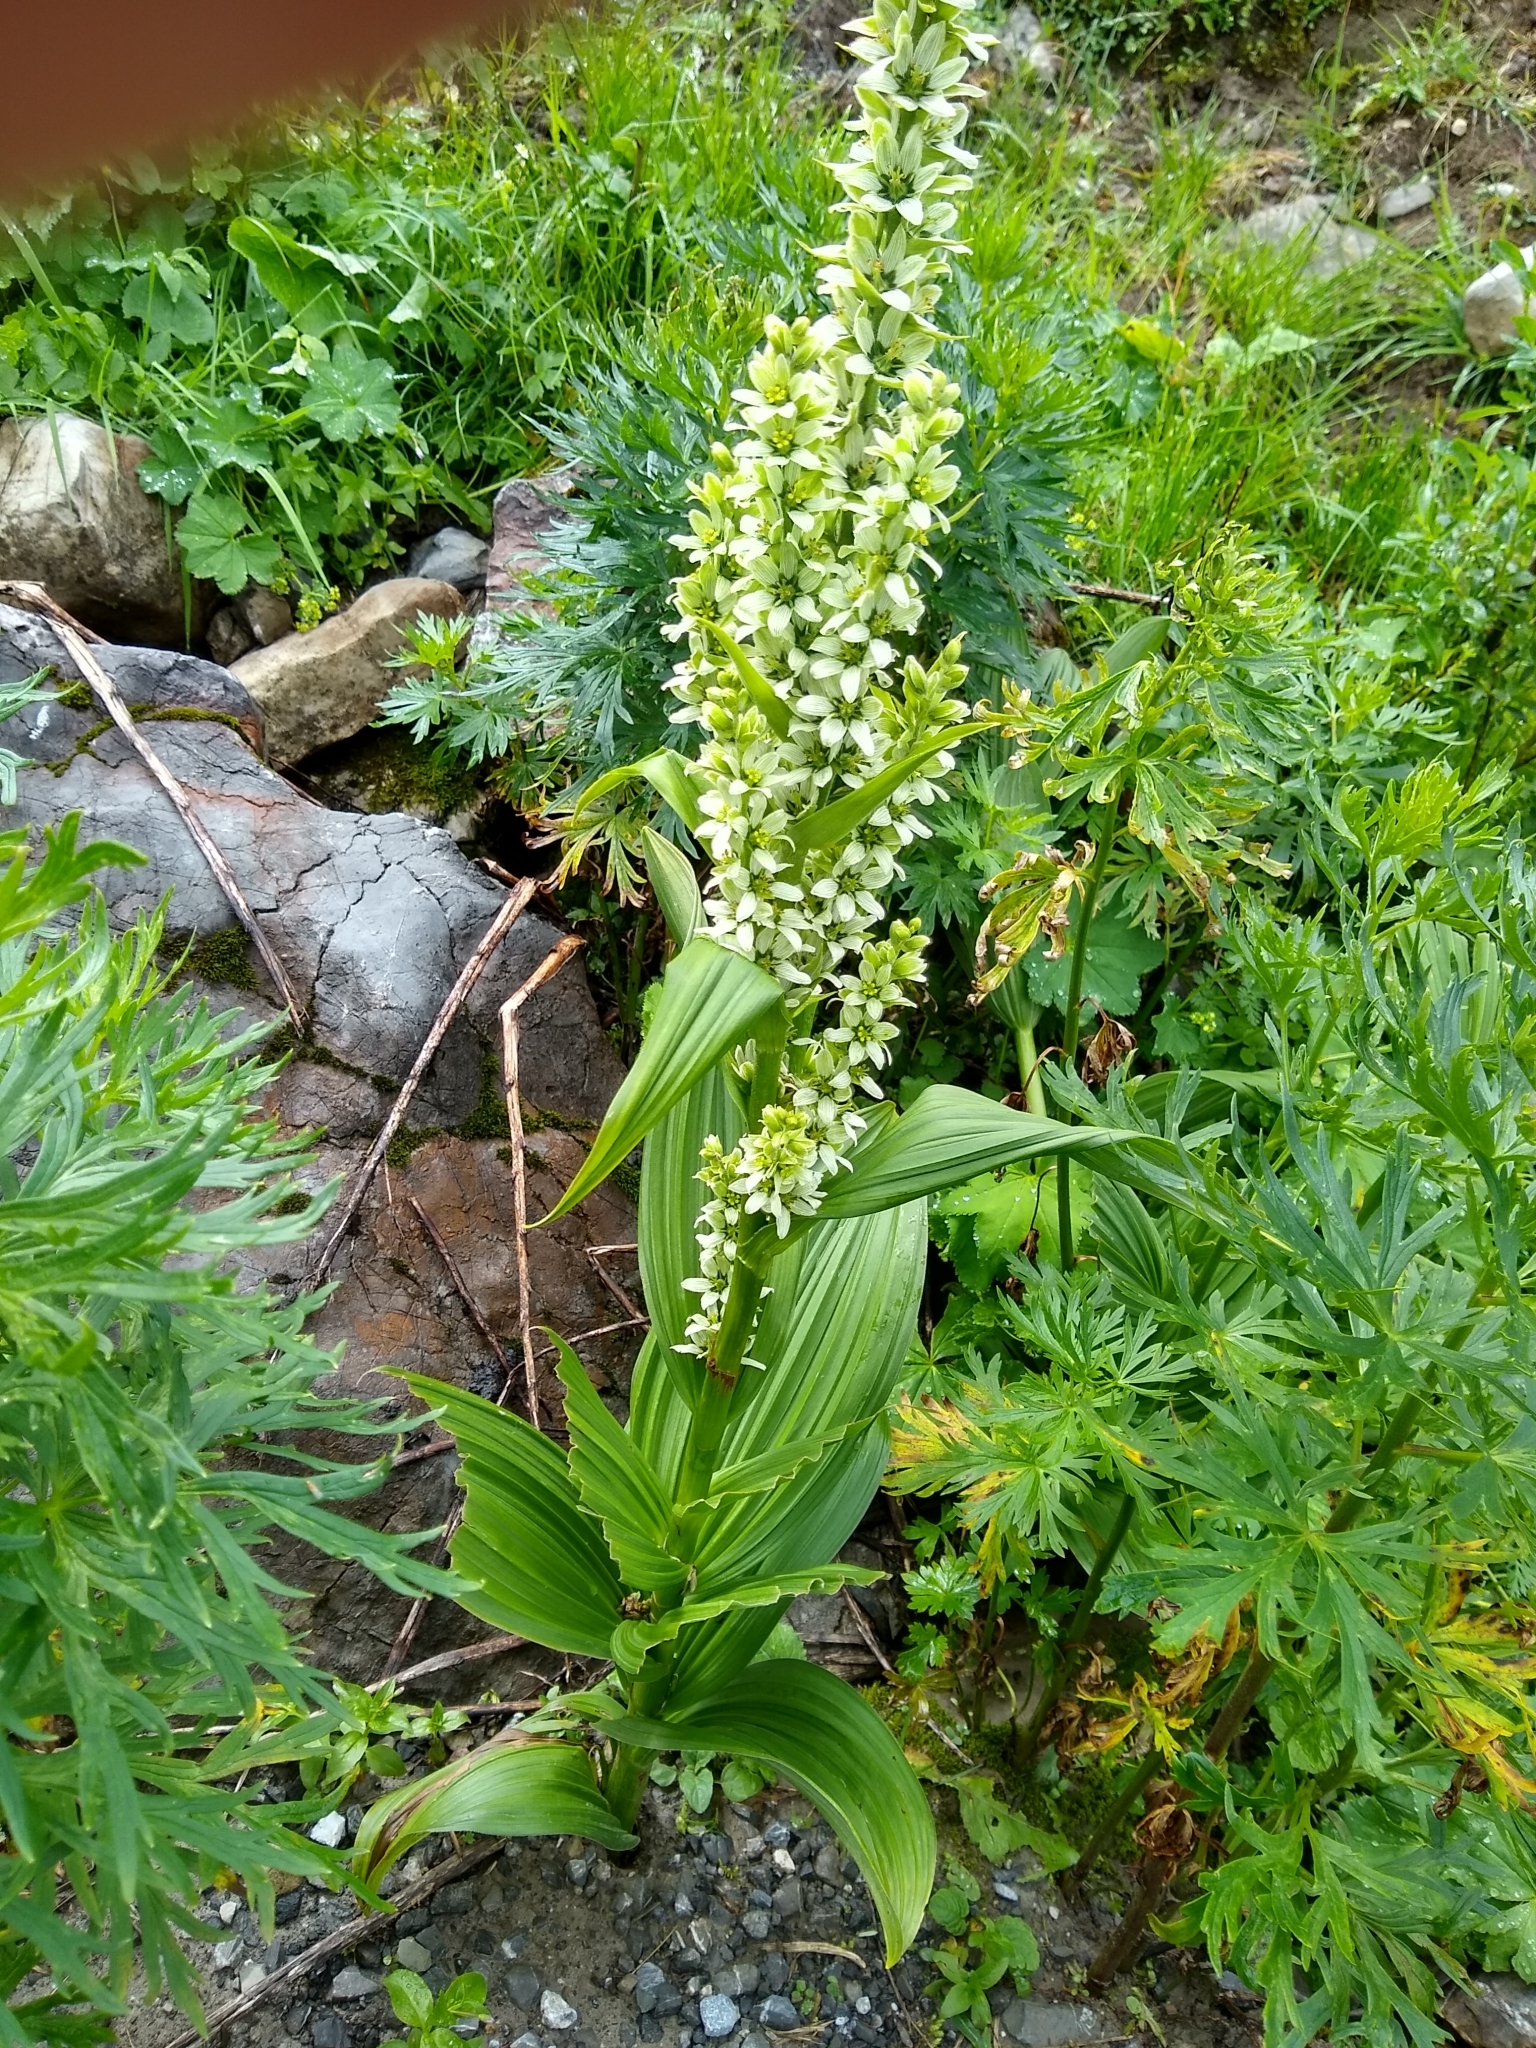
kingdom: Plantae
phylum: Tracheophyta
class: Liliopsida
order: Liliales
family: Melanthiaceae
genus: Veratrum
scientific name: Veratrum album
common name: White veratrum
